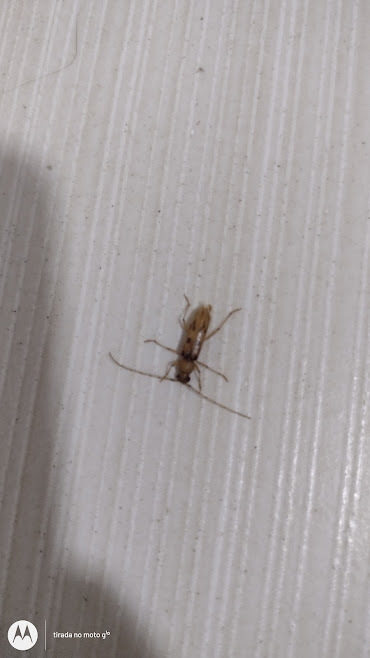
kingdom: Animalia
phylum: Arthropoda
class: Insecta
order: Coleoptera
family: Cerambycidae
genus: Achryson
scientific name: Achryson surinamum
